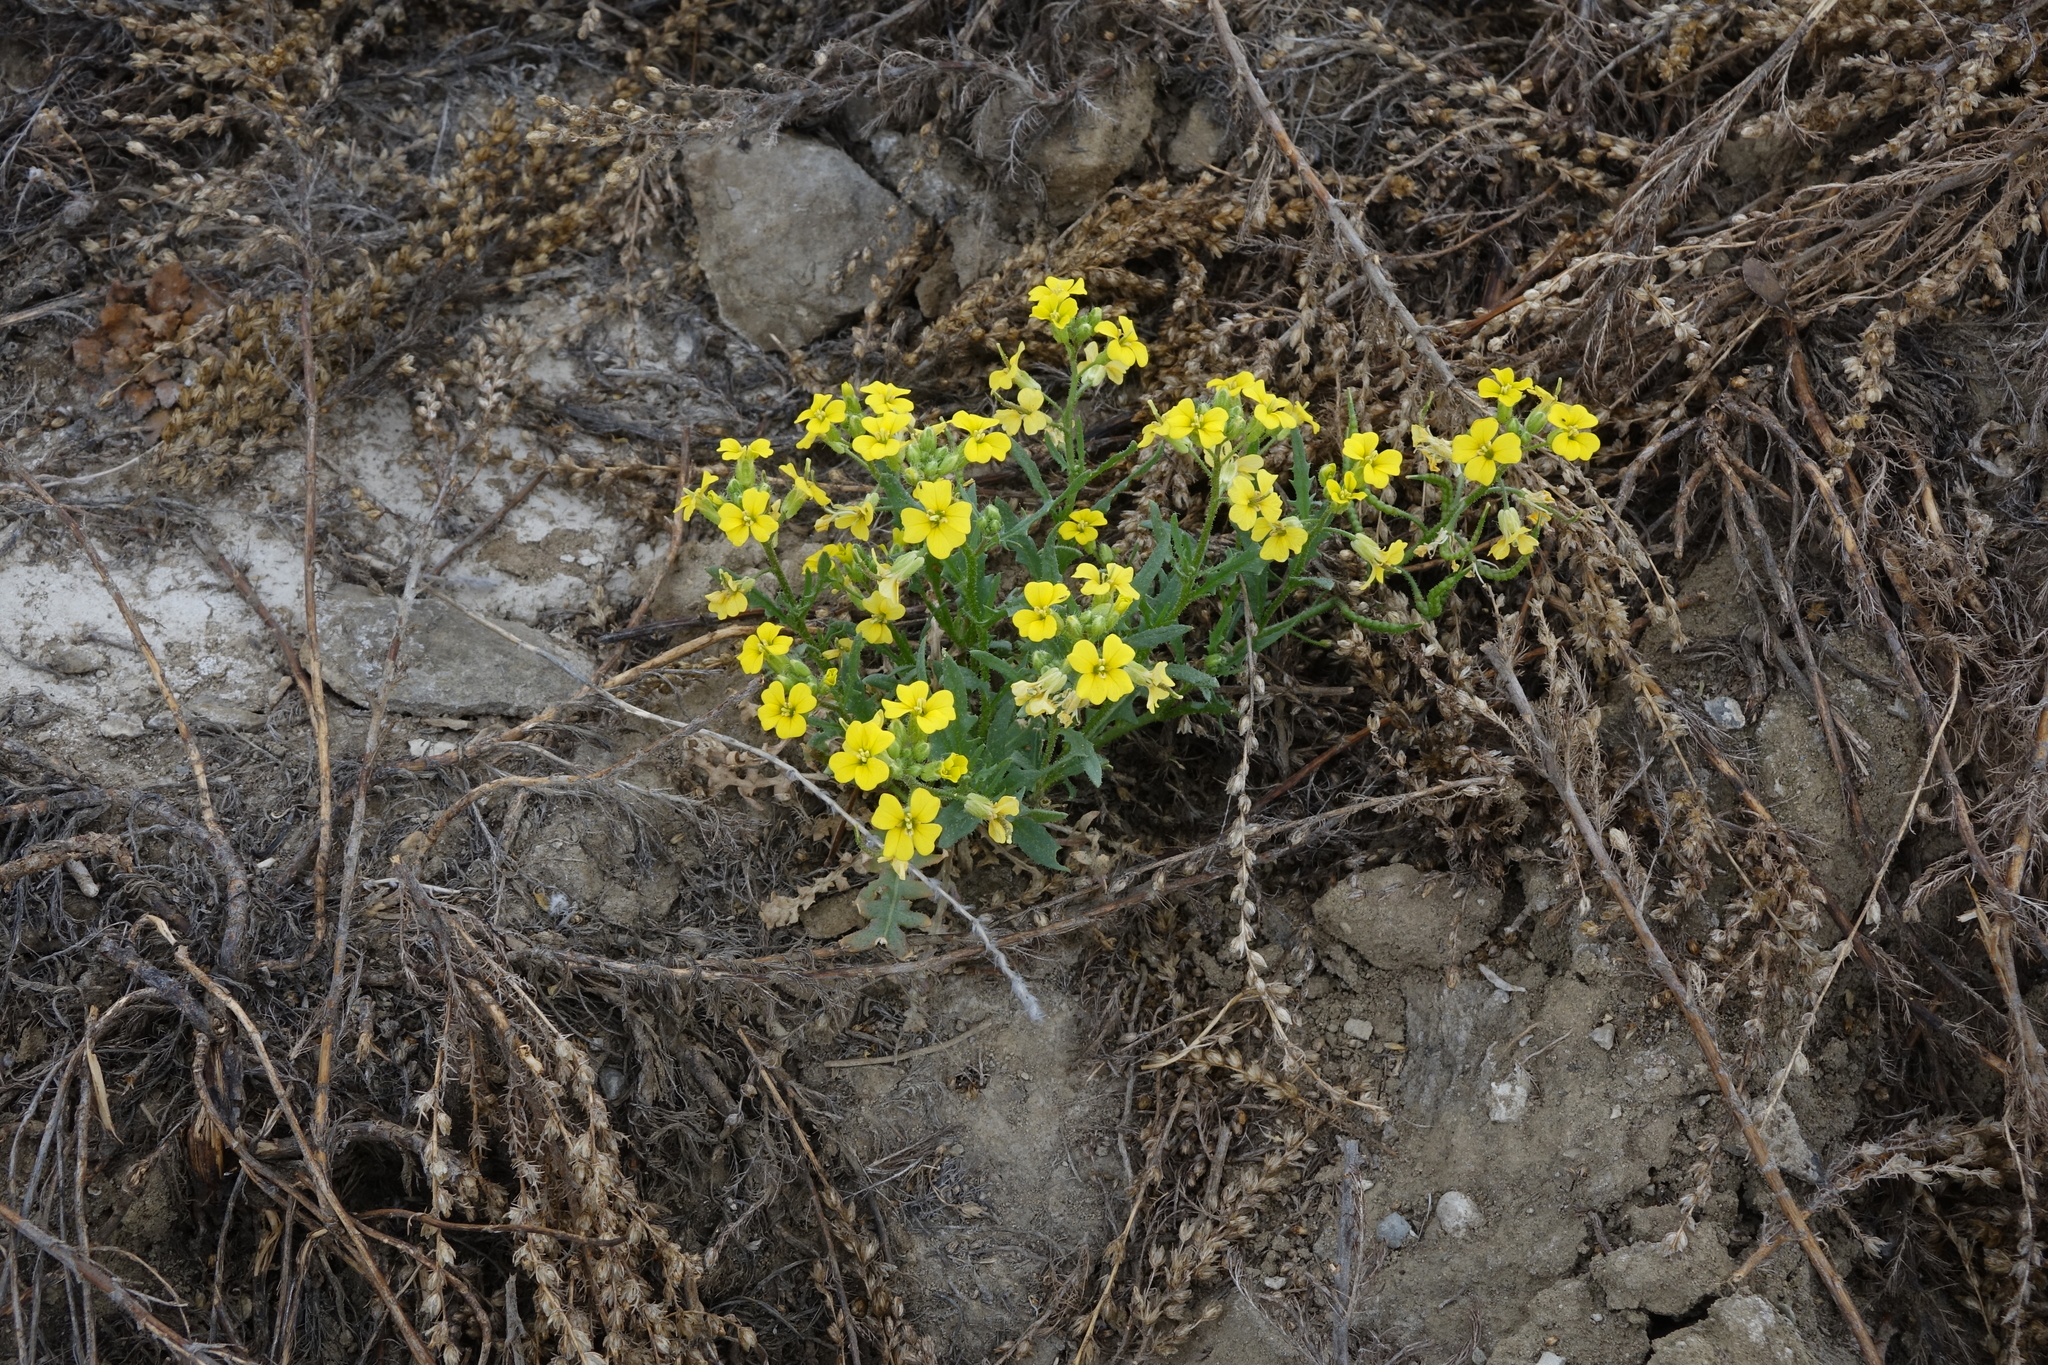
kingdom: Plantae
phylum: Tracheophyta
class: Magnoliopsida
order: Brassicales
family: Brassicaceae
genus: Chorispora
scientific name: Chorispora sibirica
